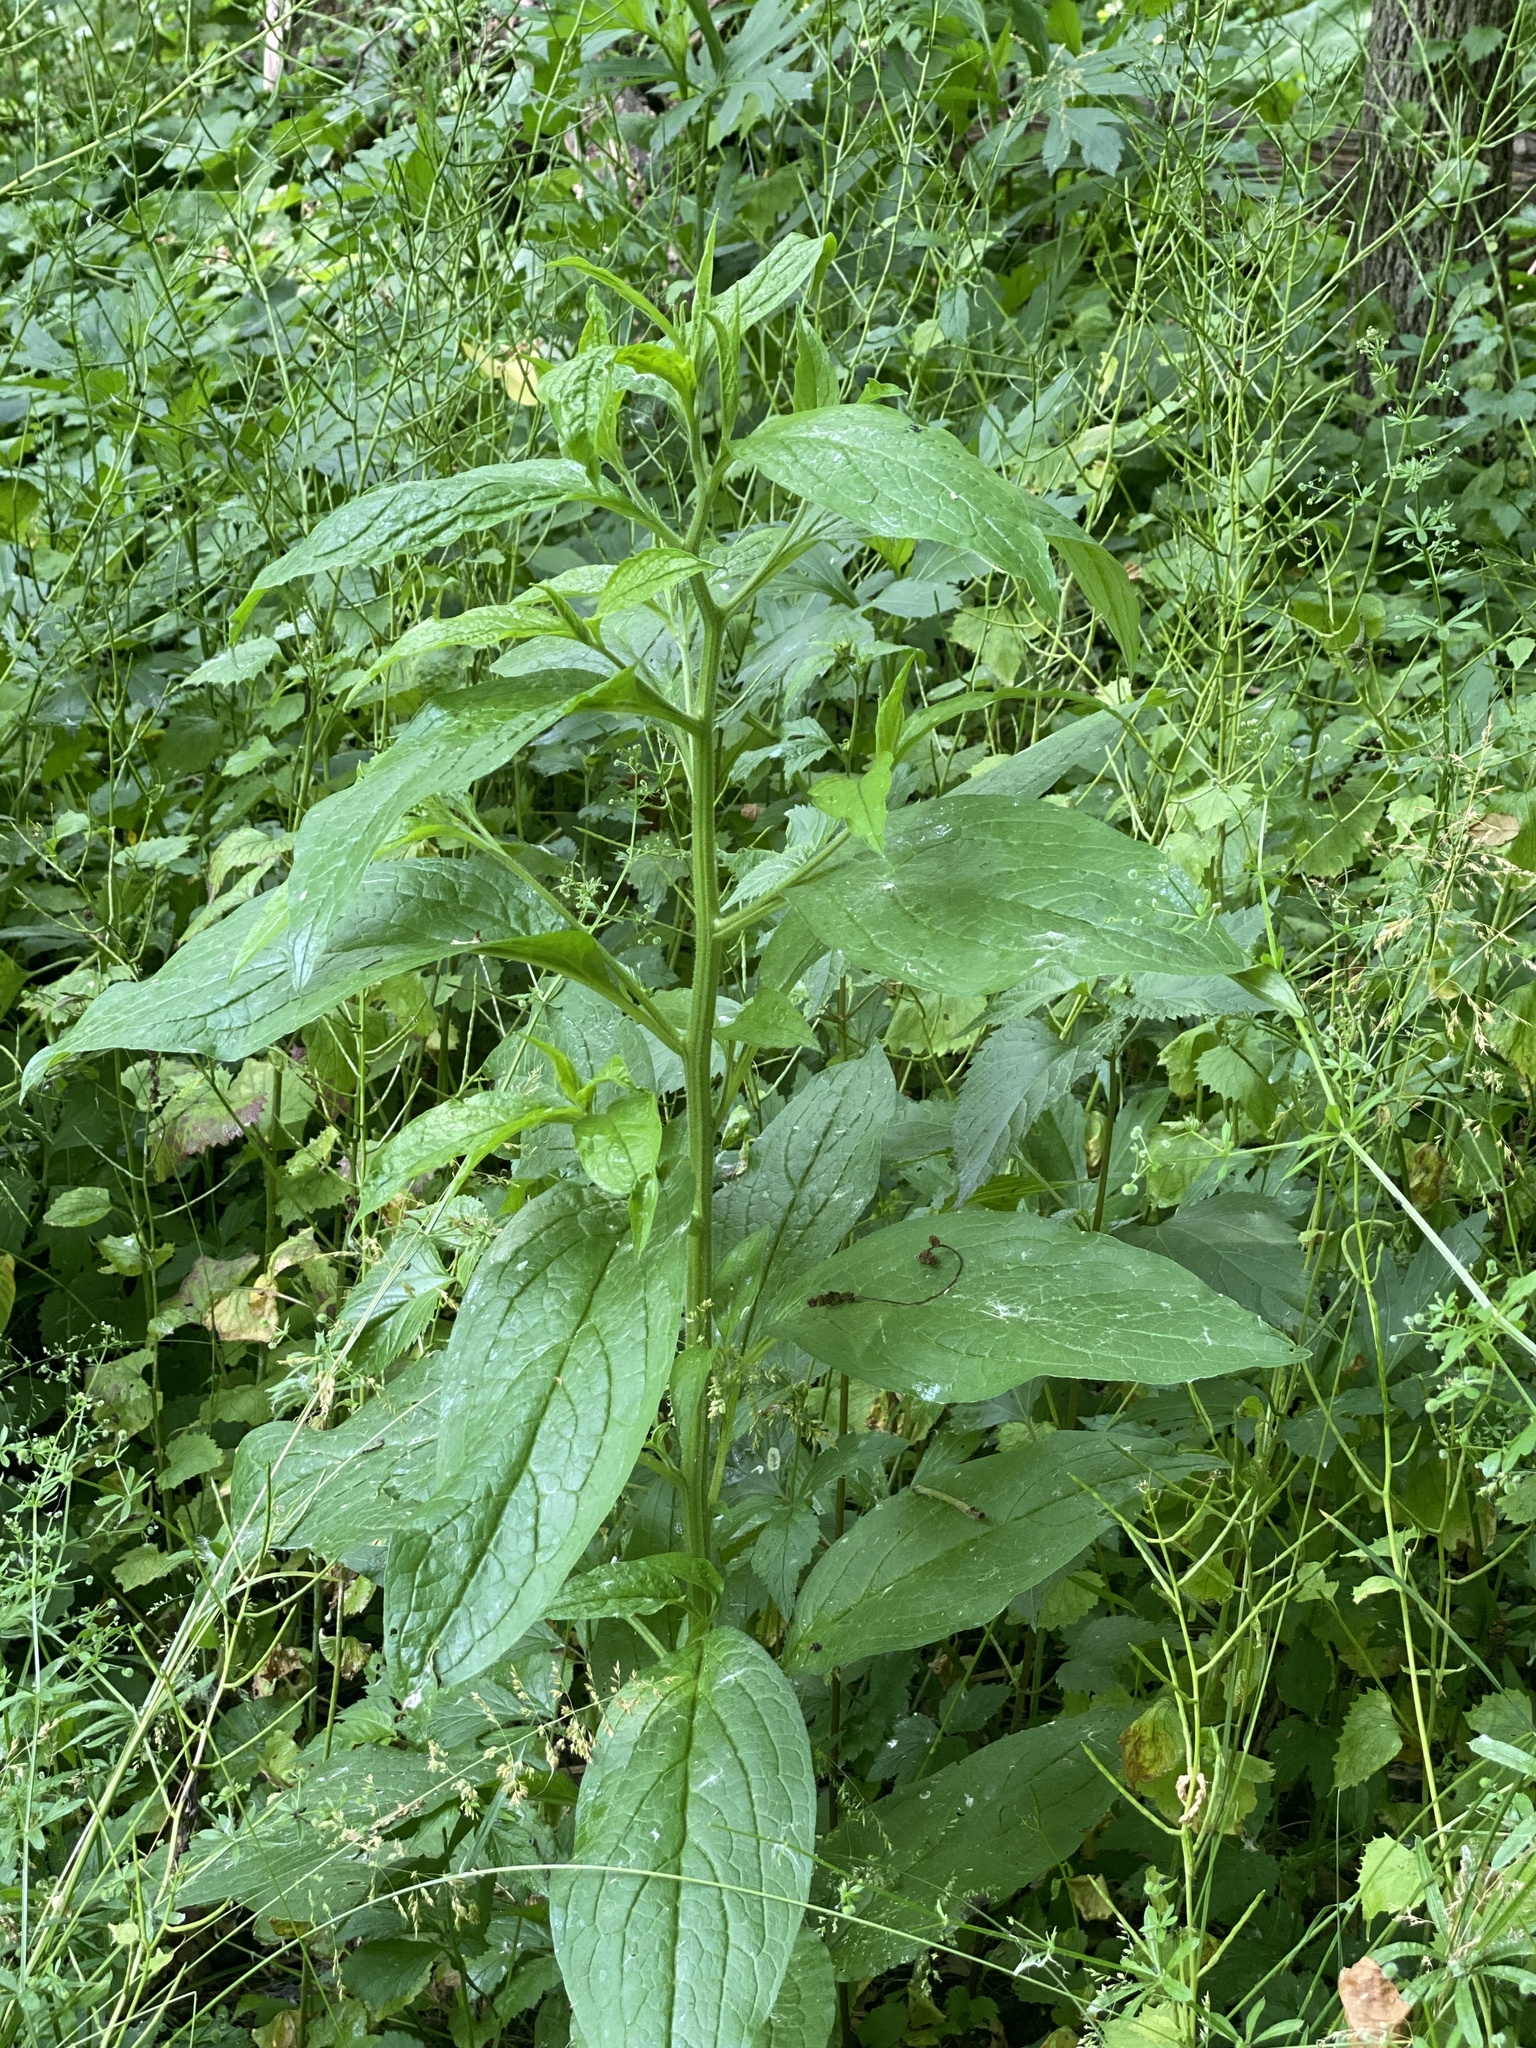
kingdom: Plantae
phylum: Tracheophyta
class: Magnoliopsida
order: Boraginales
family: Boraginaceae
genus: Hackelia
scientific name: Hackelia virginiana
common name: Beggar's-lice
